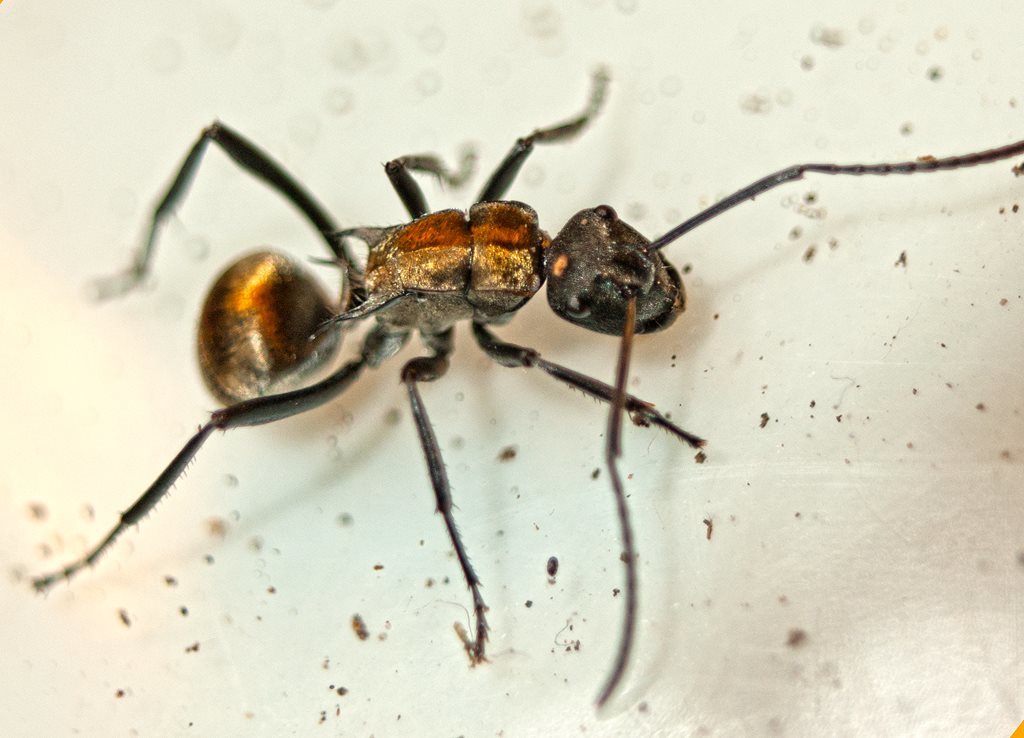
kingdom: Animalia
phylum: Arthropoda
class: Insecta
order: Hymenoptera
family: Formicidae
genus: Polyrhachis
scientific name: Polyrhachis ammon
